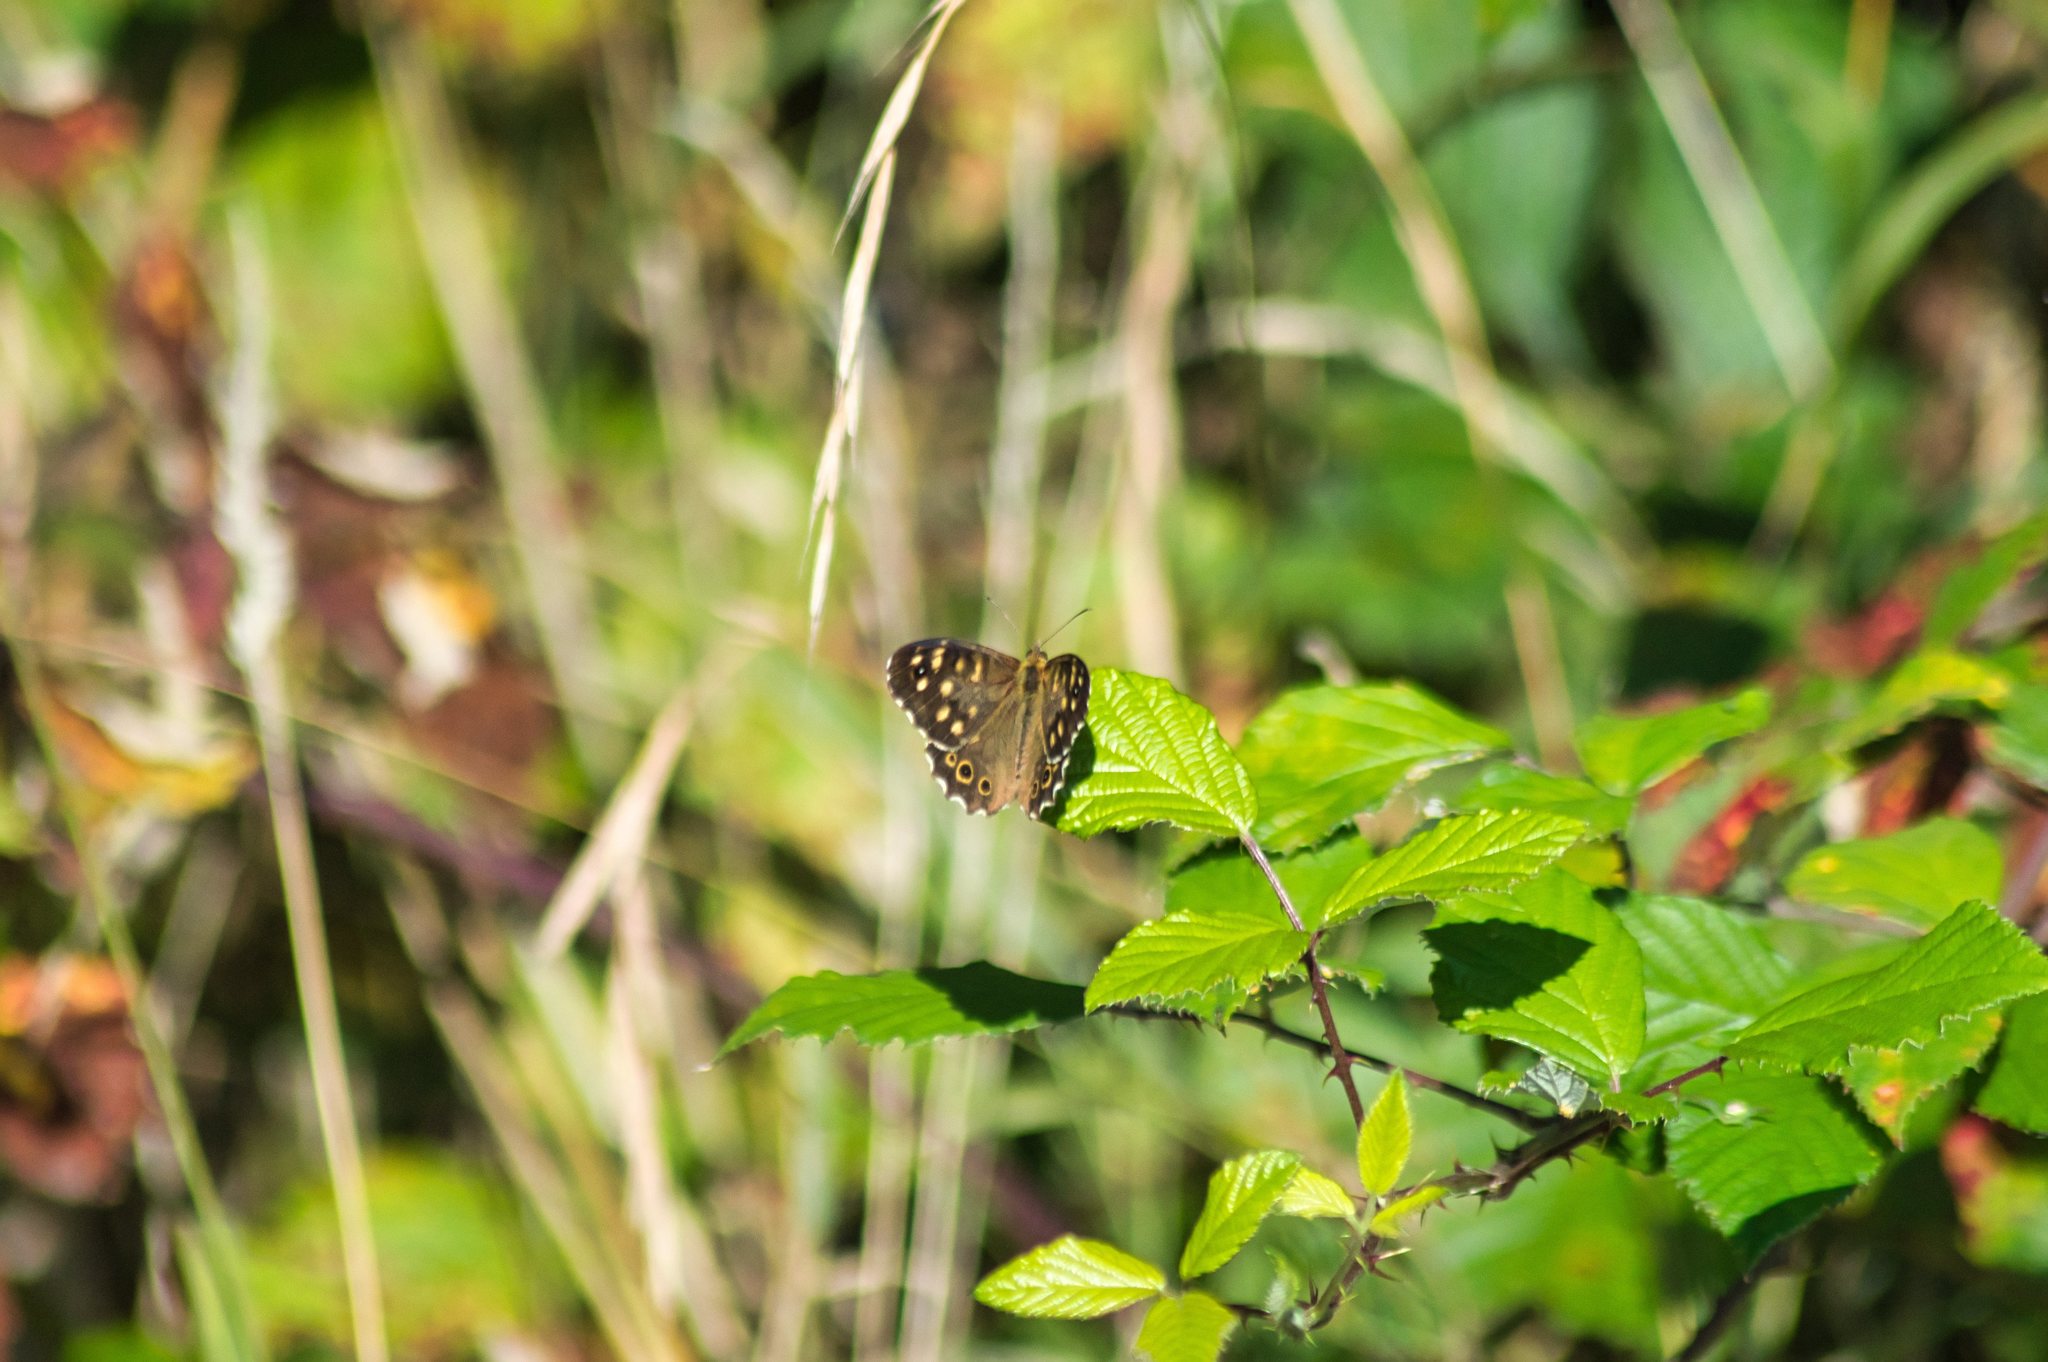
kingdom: Animalia
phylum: Arthropoda
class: Insecta
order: Lepidoptera
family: Nymphalidae
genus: Pararge
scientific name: Pararge aegeria
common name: Speckled wood
